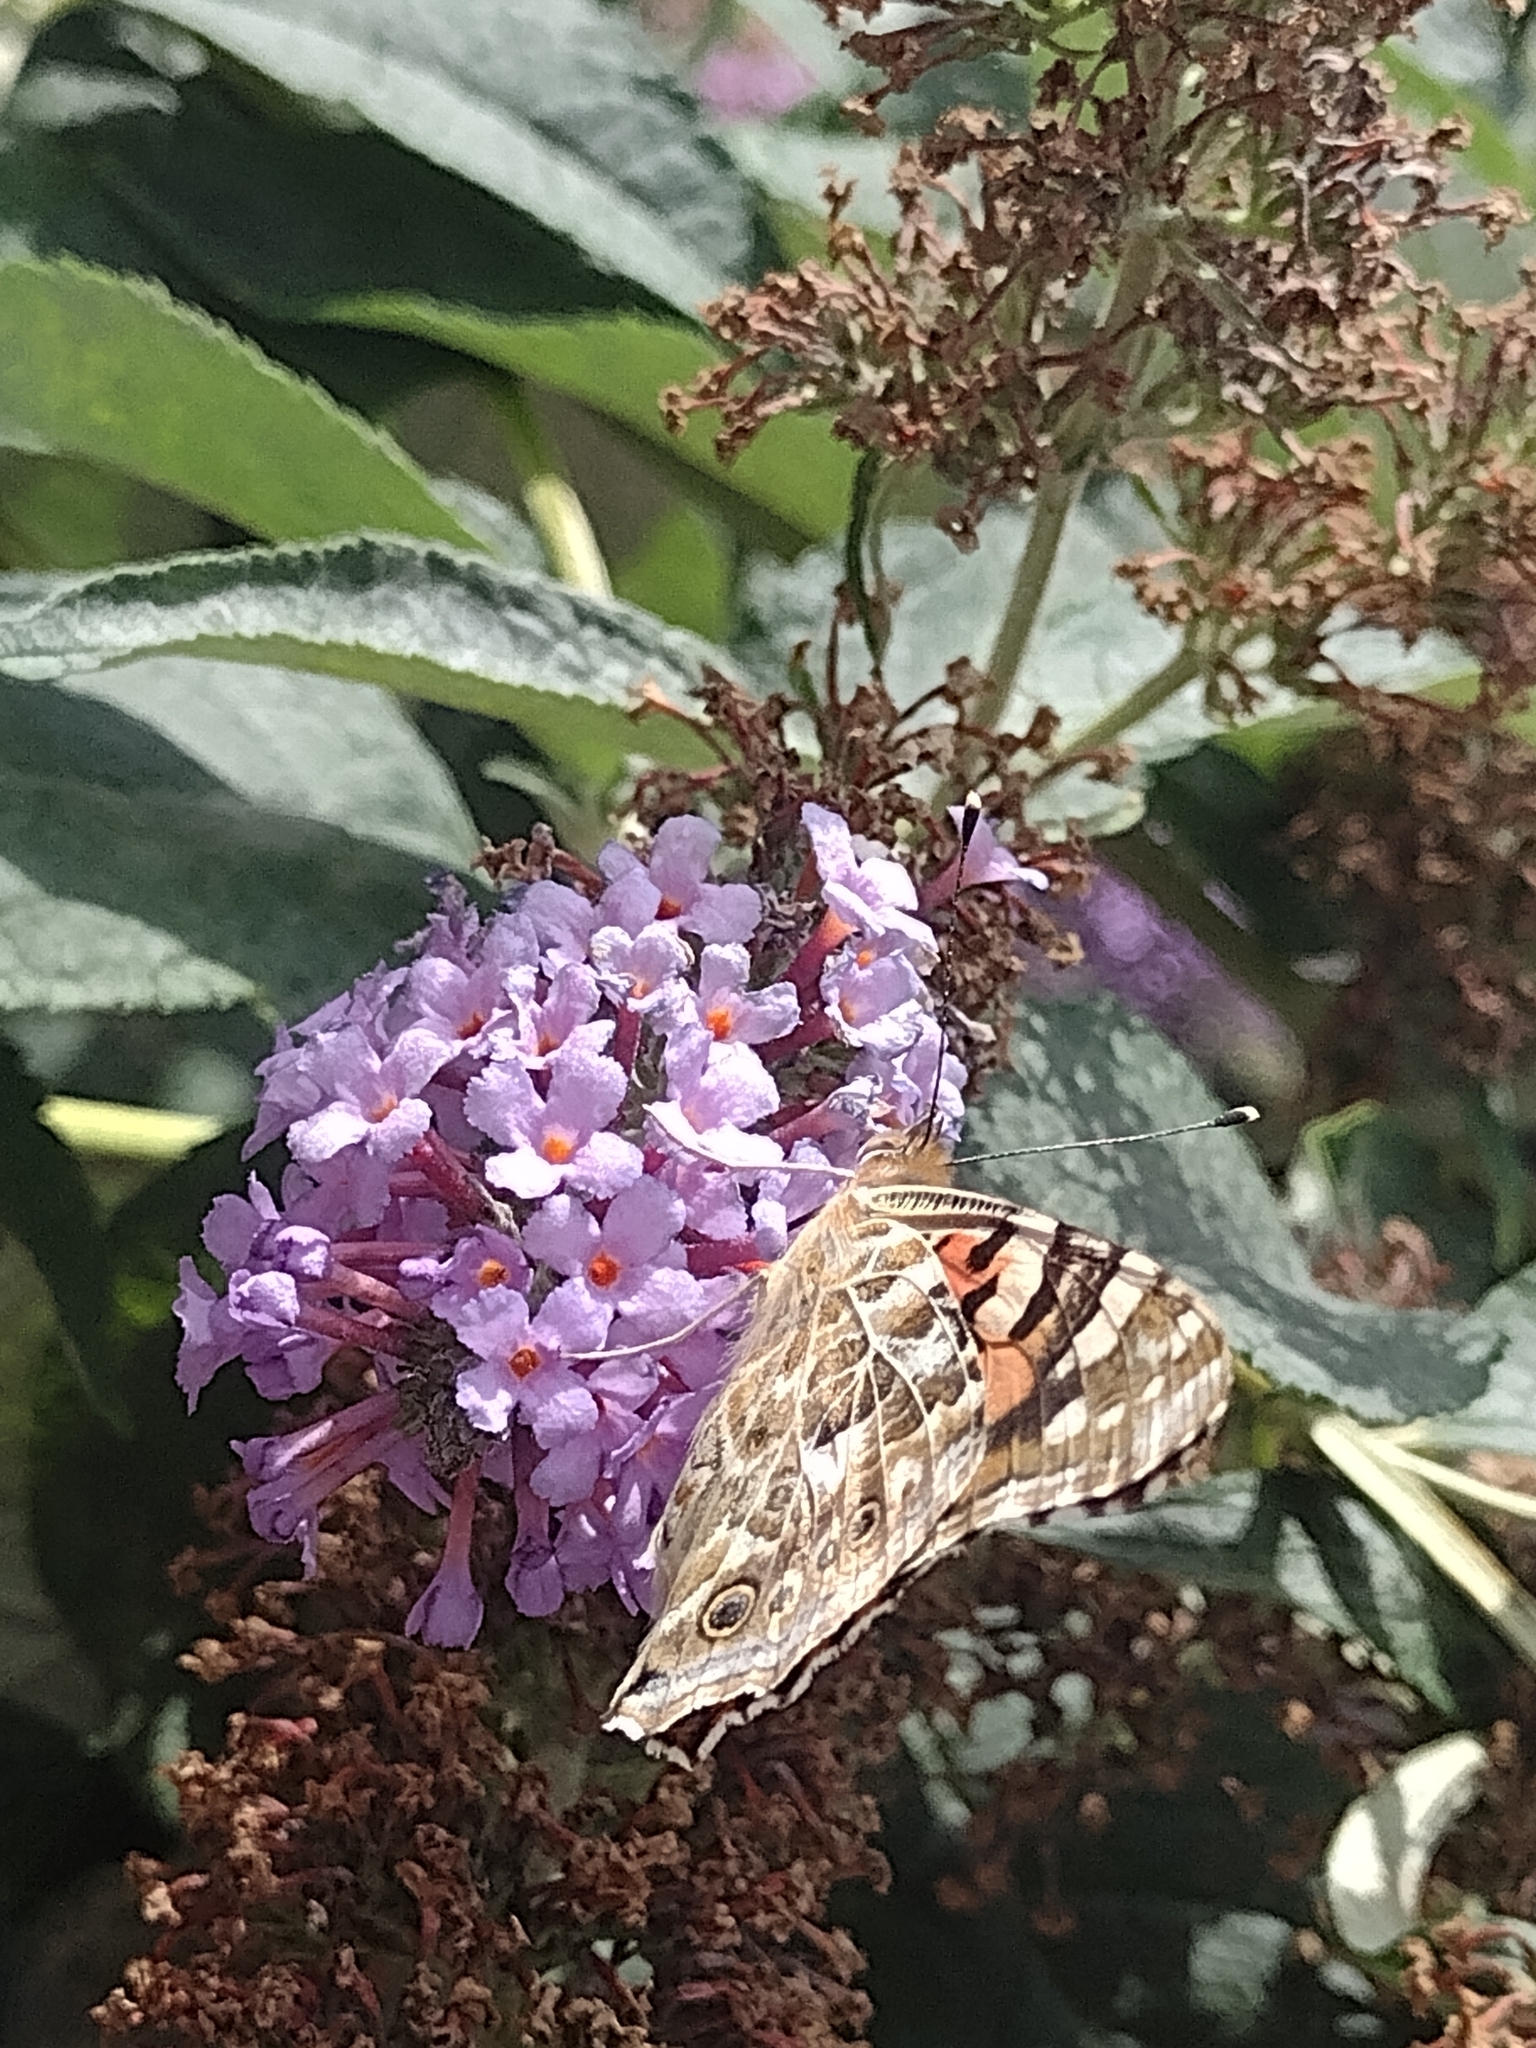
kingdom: Animalia
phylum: Arthropoda
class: Insecta
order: Lepidoptera
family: Nymphalidae
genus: Vanessa
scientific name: Vanessa cardui
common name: Painted lady
